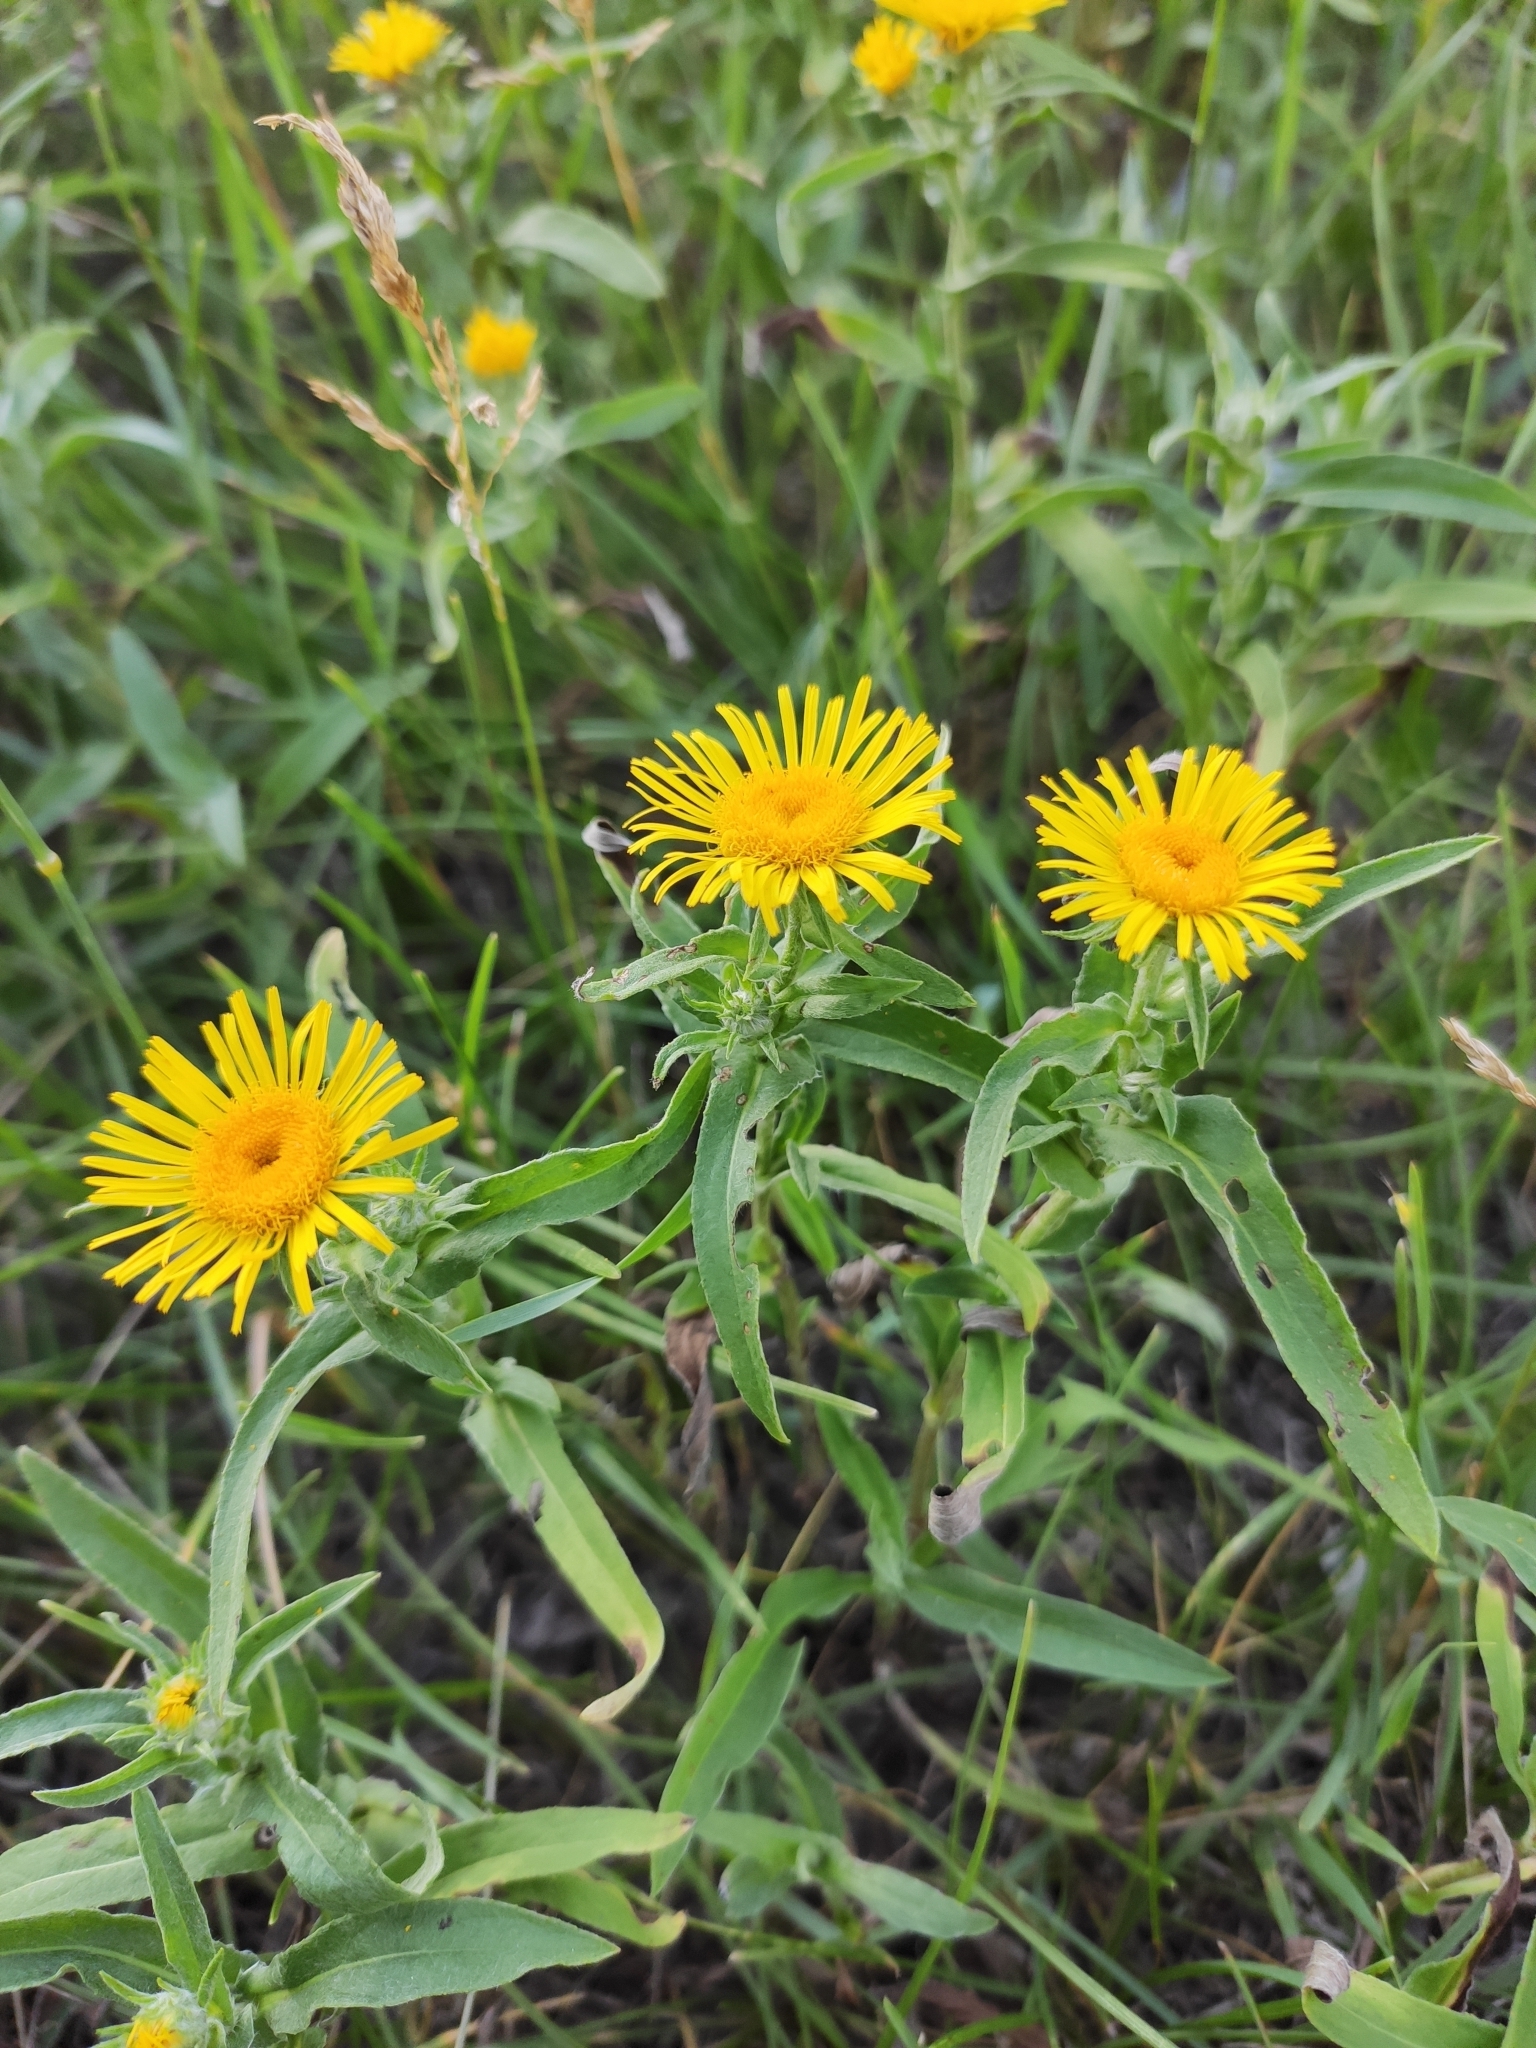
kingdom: Plantae
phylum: Tracheophyta
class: Magnoliopsida
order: Asterales
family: Asteraceae
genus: Pentanema
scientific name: Pentanema britannicum
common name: British elecampane
